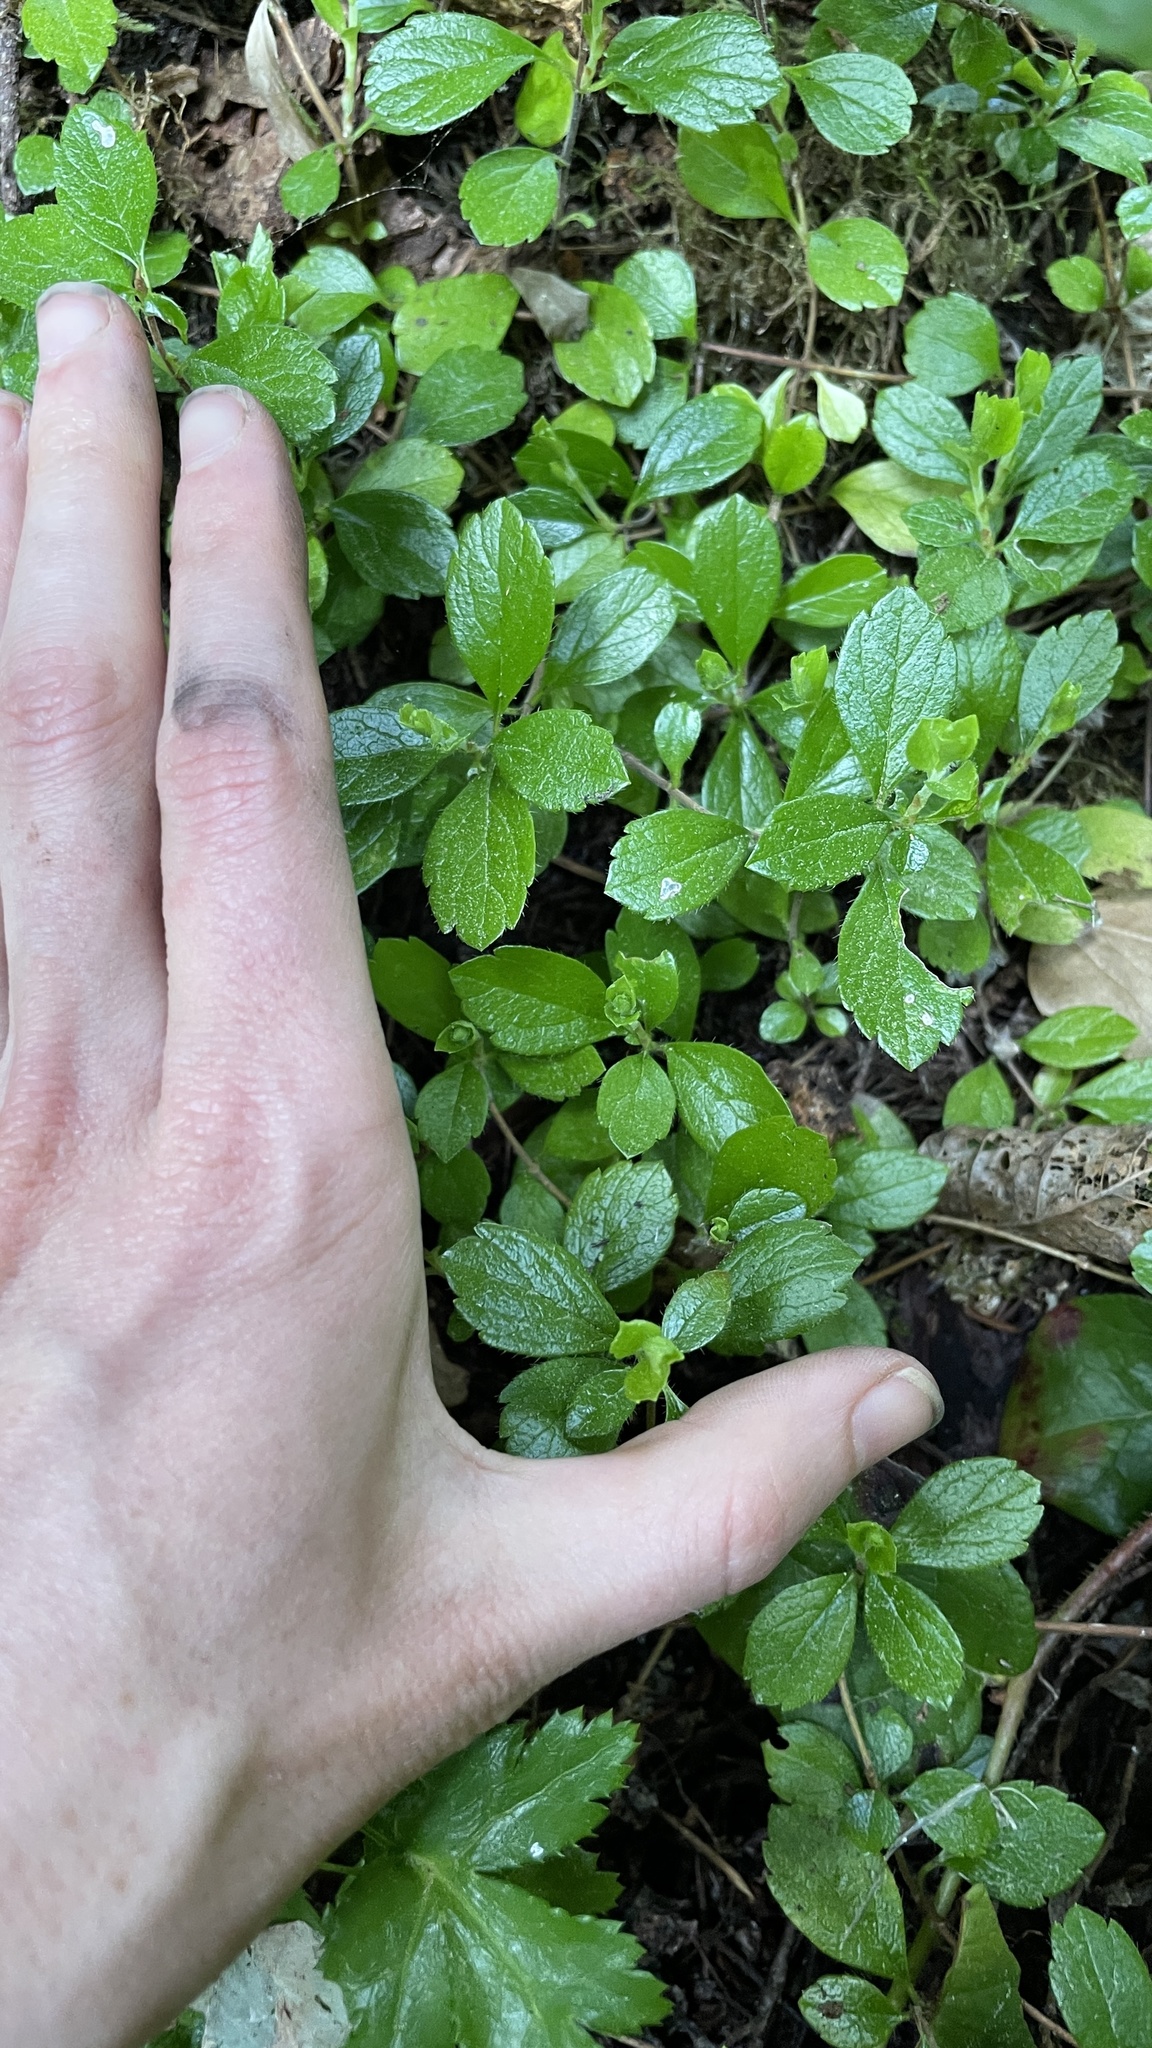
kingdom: Plantae
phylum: Tracheophyta
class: Magnoliopsida
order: Dipsacales
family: Caprifoliaceae
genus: Linnaea
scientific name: Linnaea borealis
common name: Twinflower
